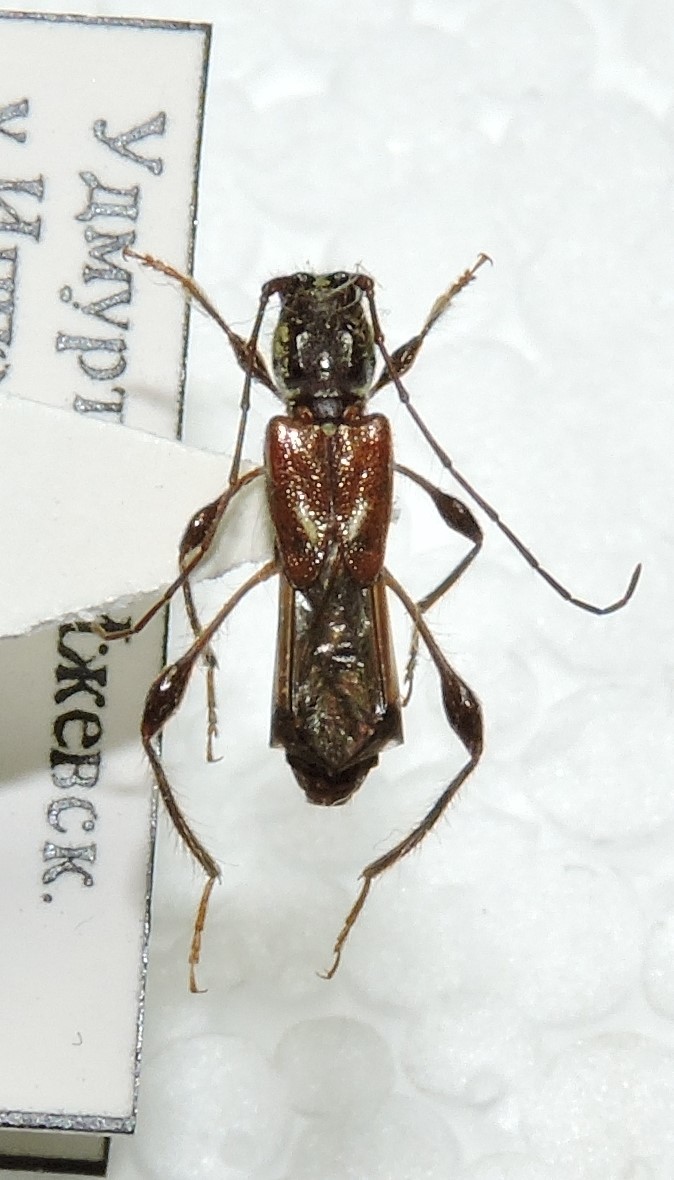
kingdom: Animalia
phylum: Arthropoda
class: Insecta
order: Coleoptera
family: Cerambycidae
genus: Molorchus
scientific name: Molorchus minor
